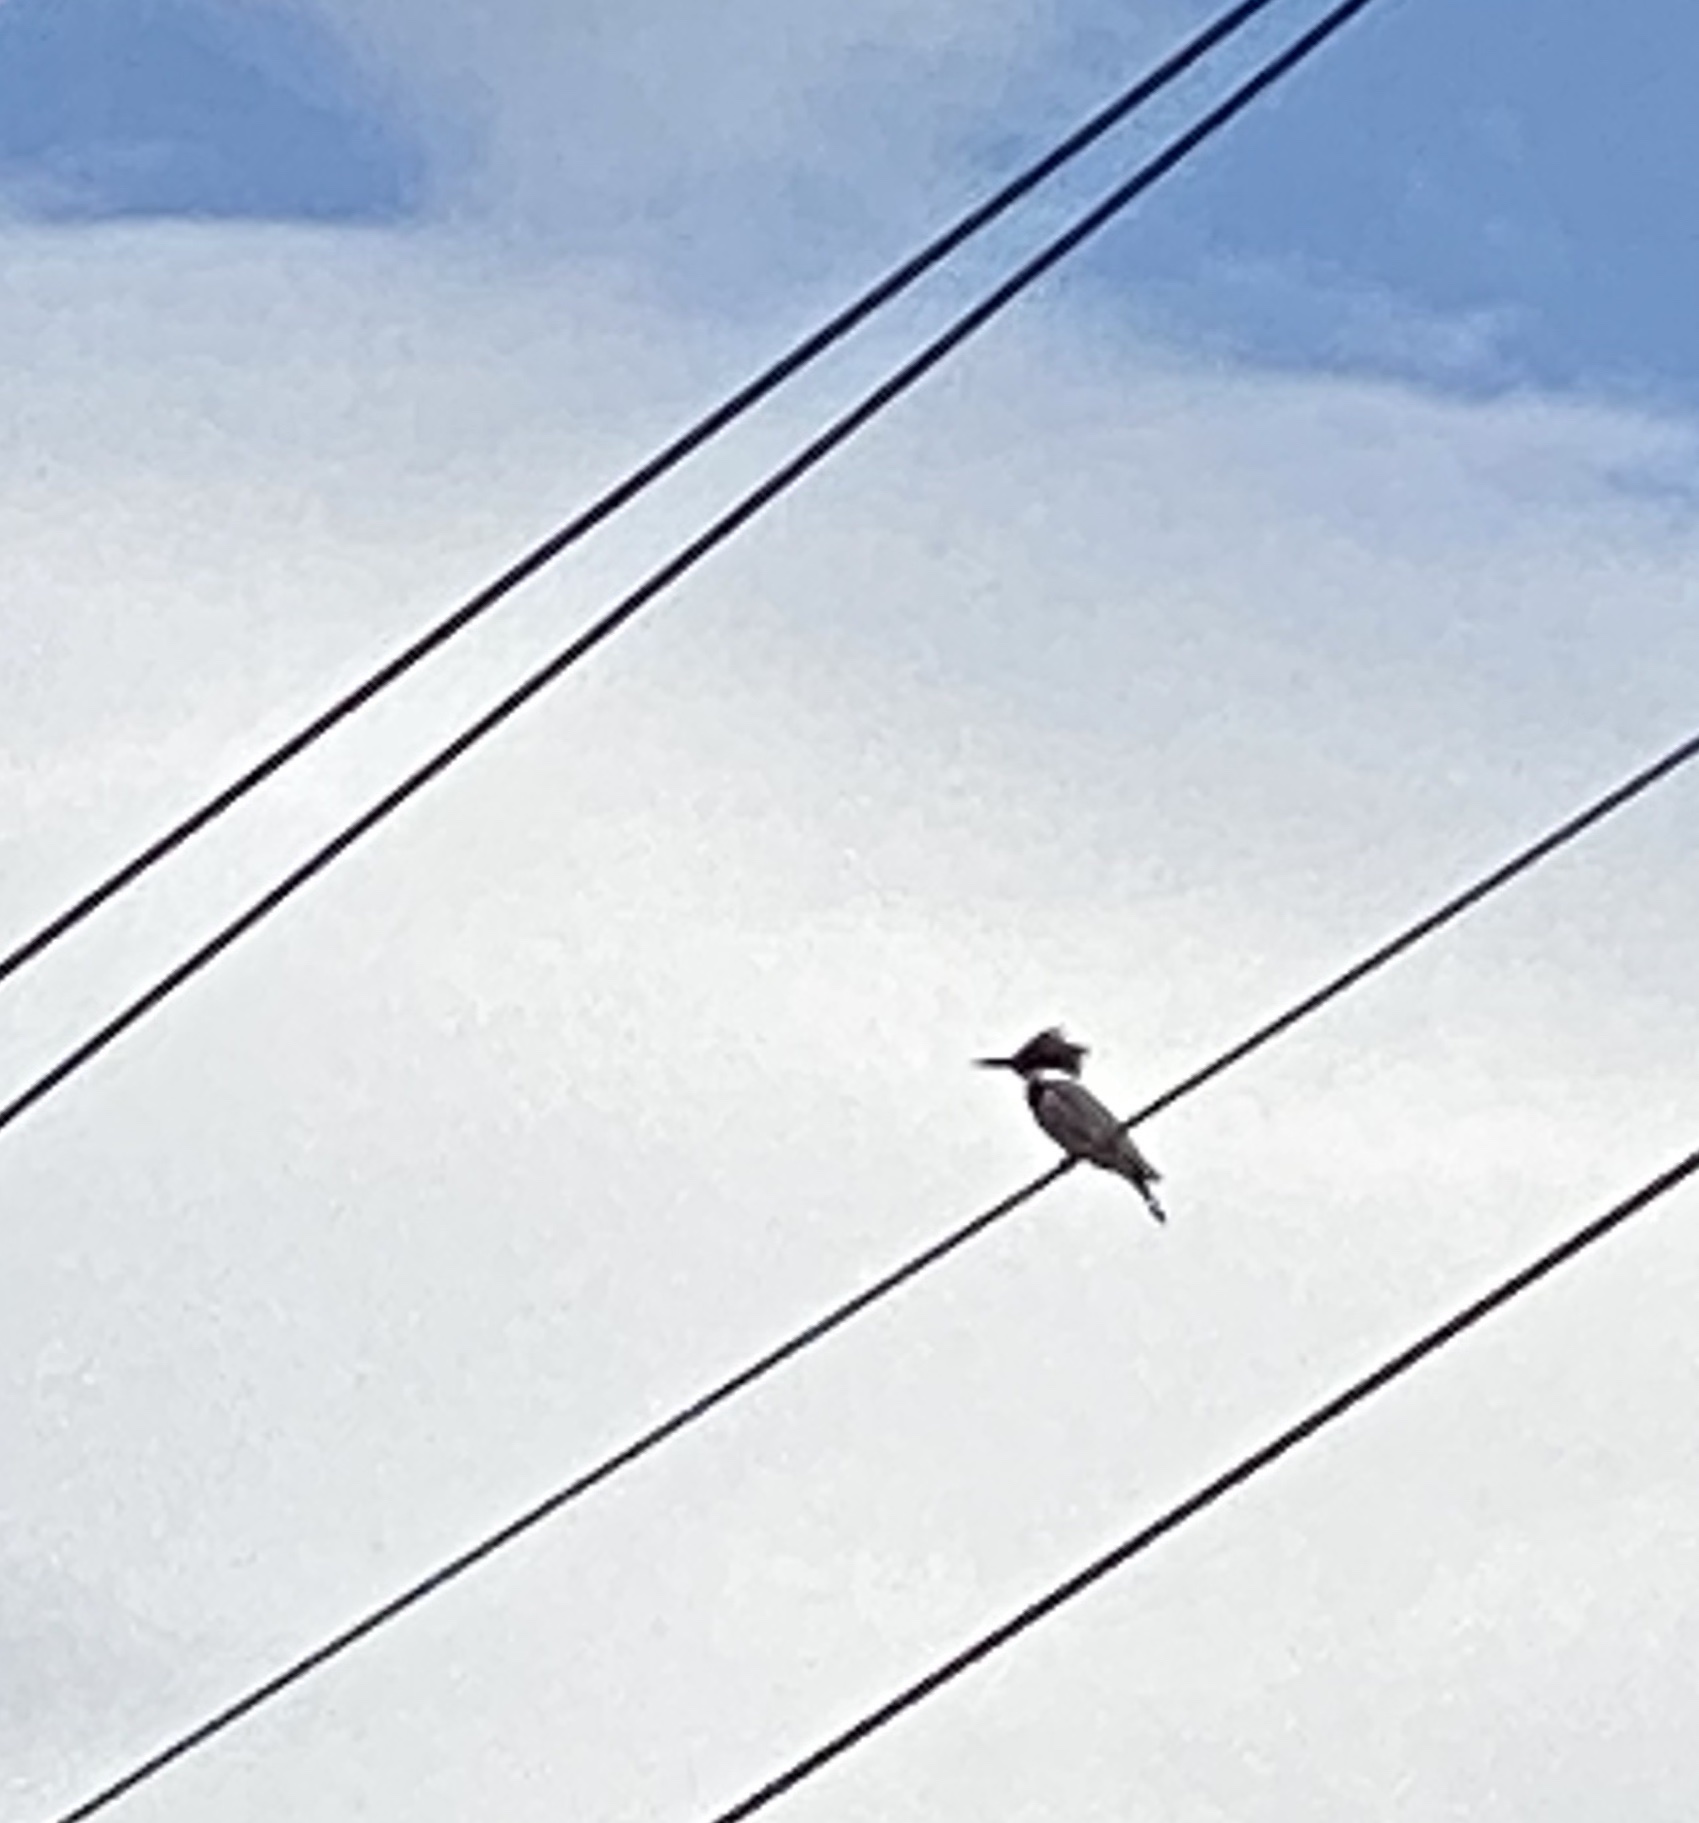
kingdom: Animalia
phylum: Chordata
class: Aves
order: Coraciiformes
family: Alcedinidae
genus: Megaceryle
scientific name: Megaceryle alcyon
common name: Belted kingfisher
